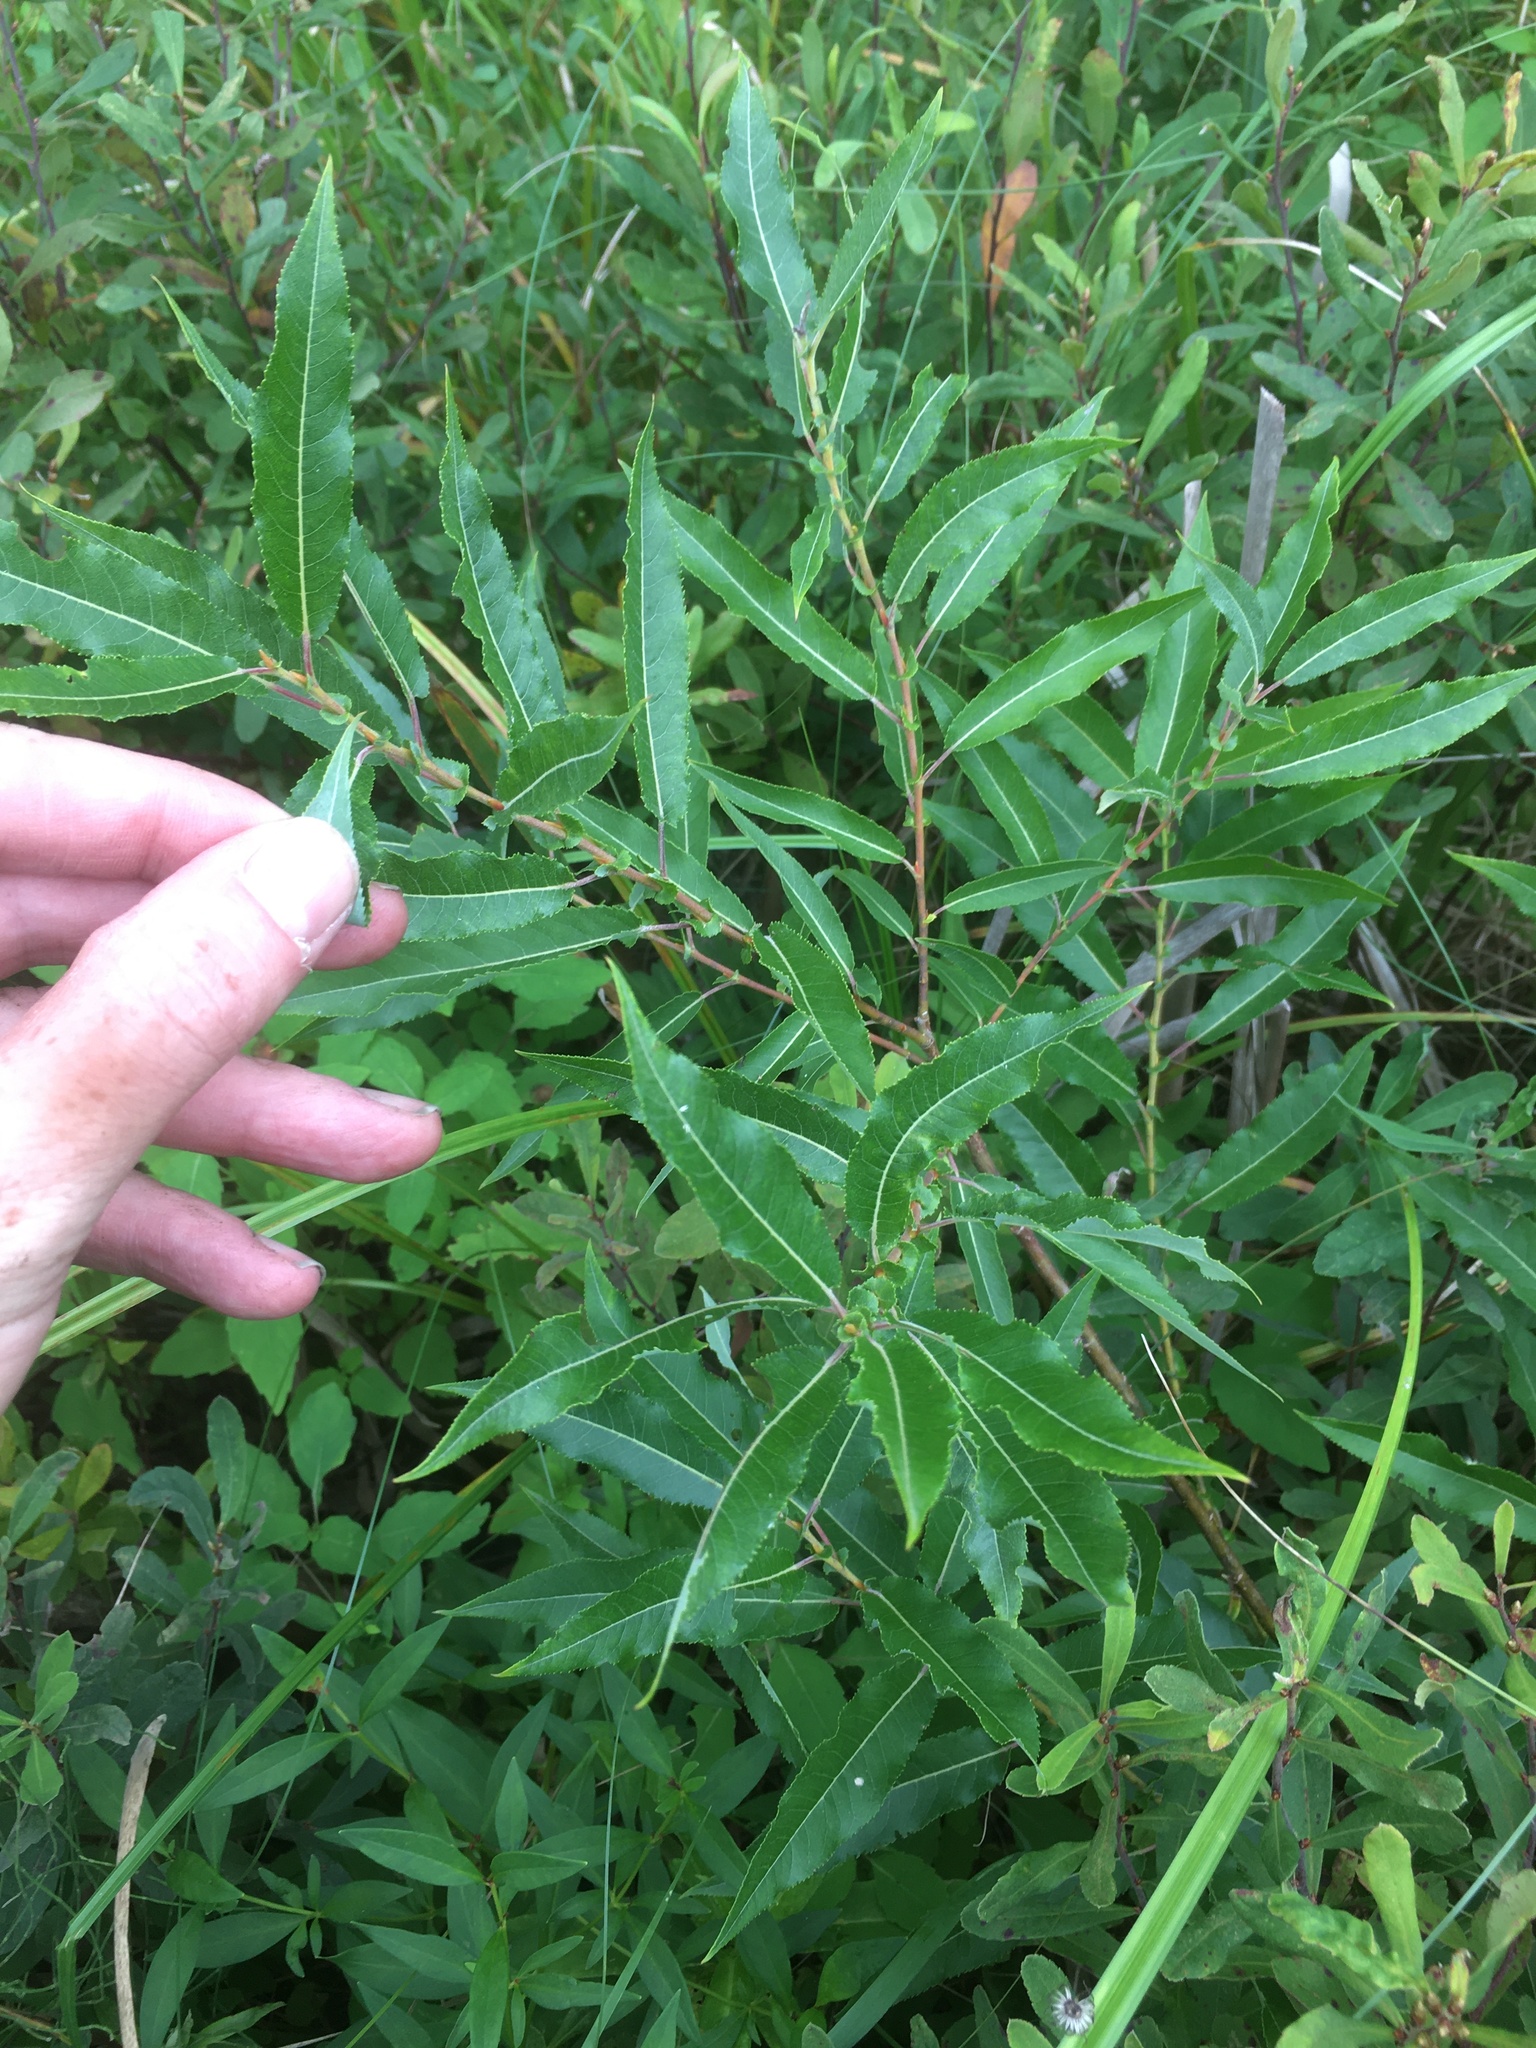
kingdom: Plantae
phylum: Tracheophyta
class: Magnoliopsida
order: Malpighiales
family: Salicaceae
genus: Salix
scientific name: Salix eriocephala
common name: Heart-leaved willow
